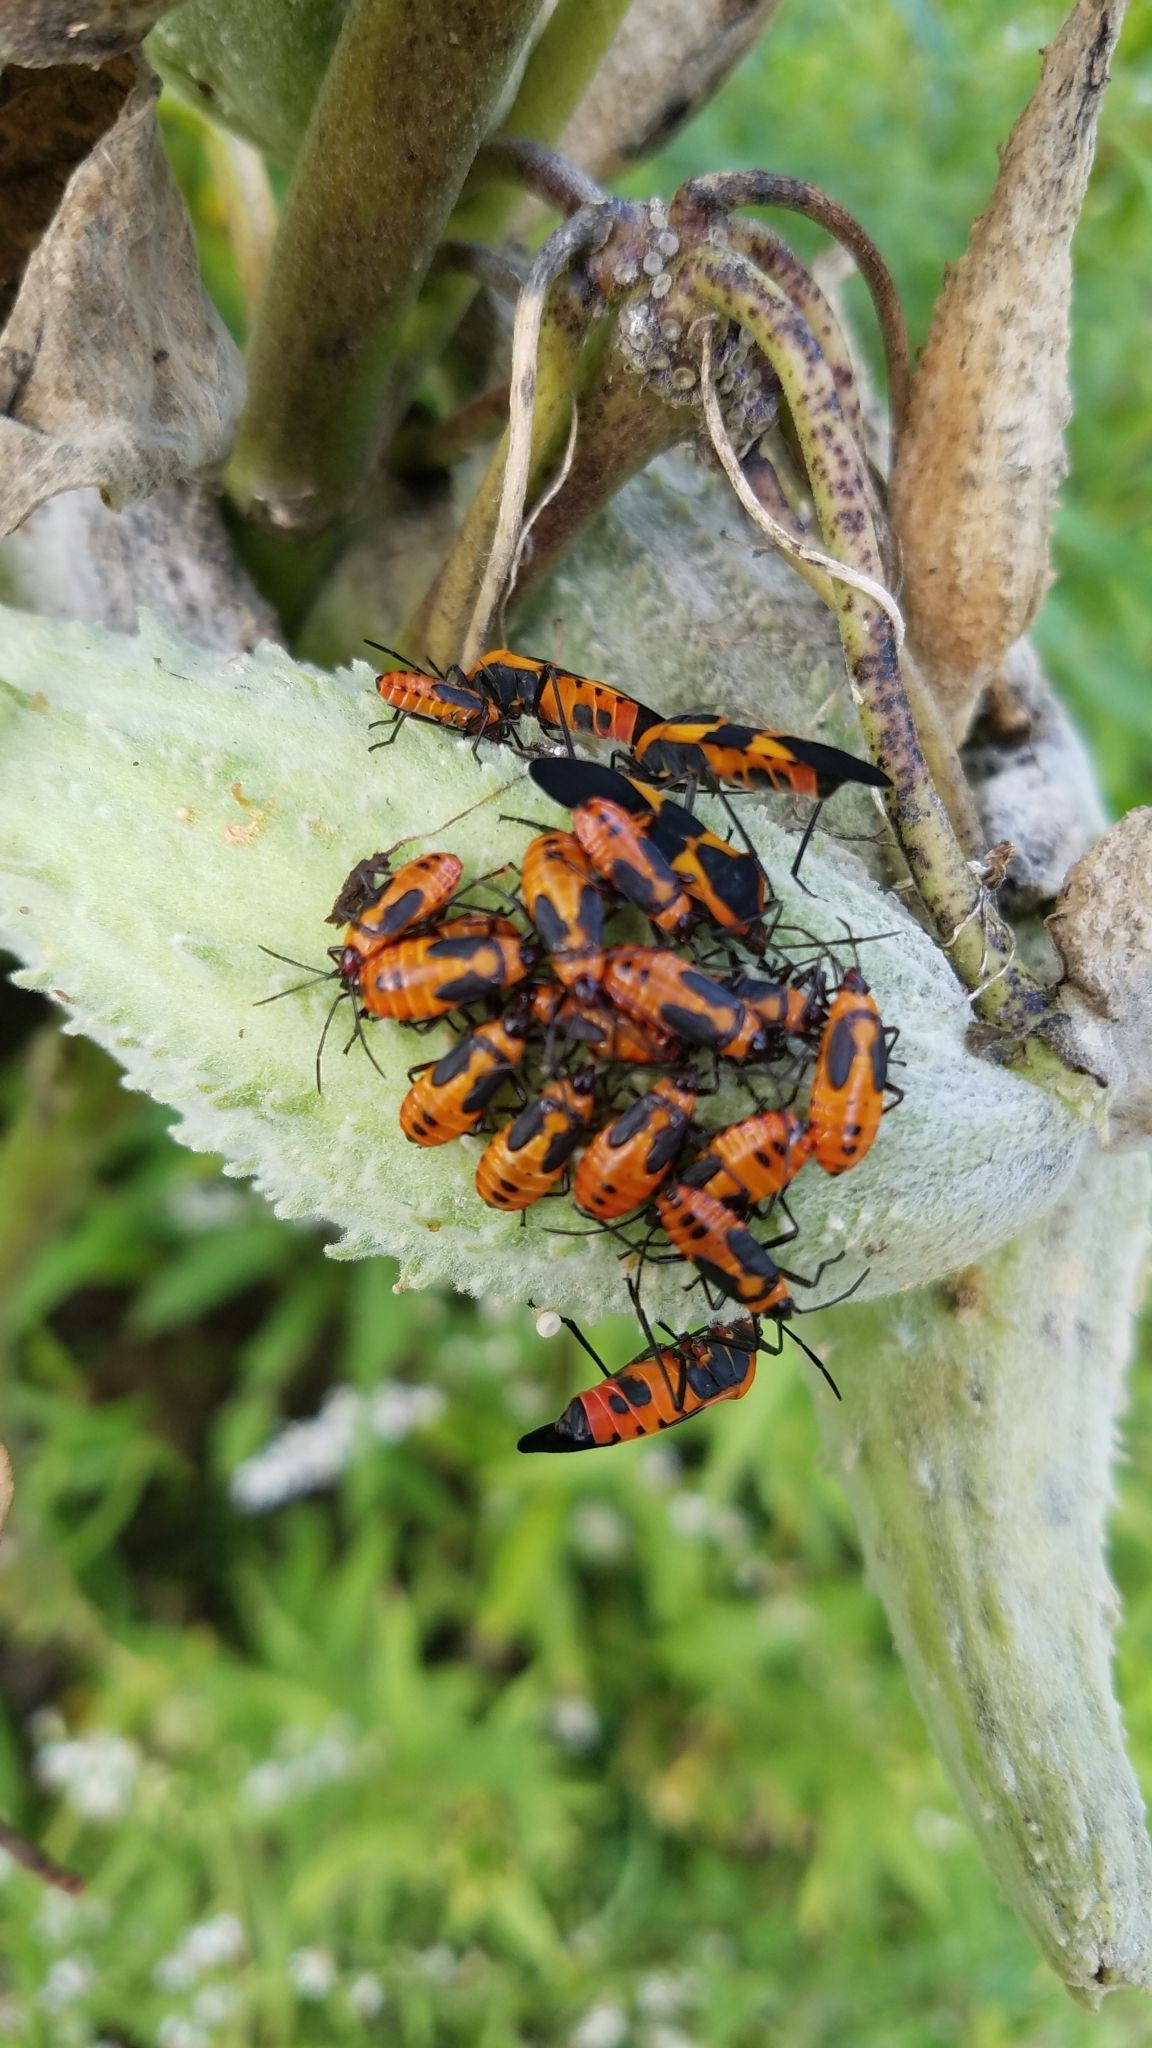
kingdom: Animalia
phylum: Arthropoda
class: Insecta
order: Hemiptera
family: Lygaeidae
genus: Oncopeltus
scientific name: Oncopeltus fasciatus
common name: Large milkweed bug
